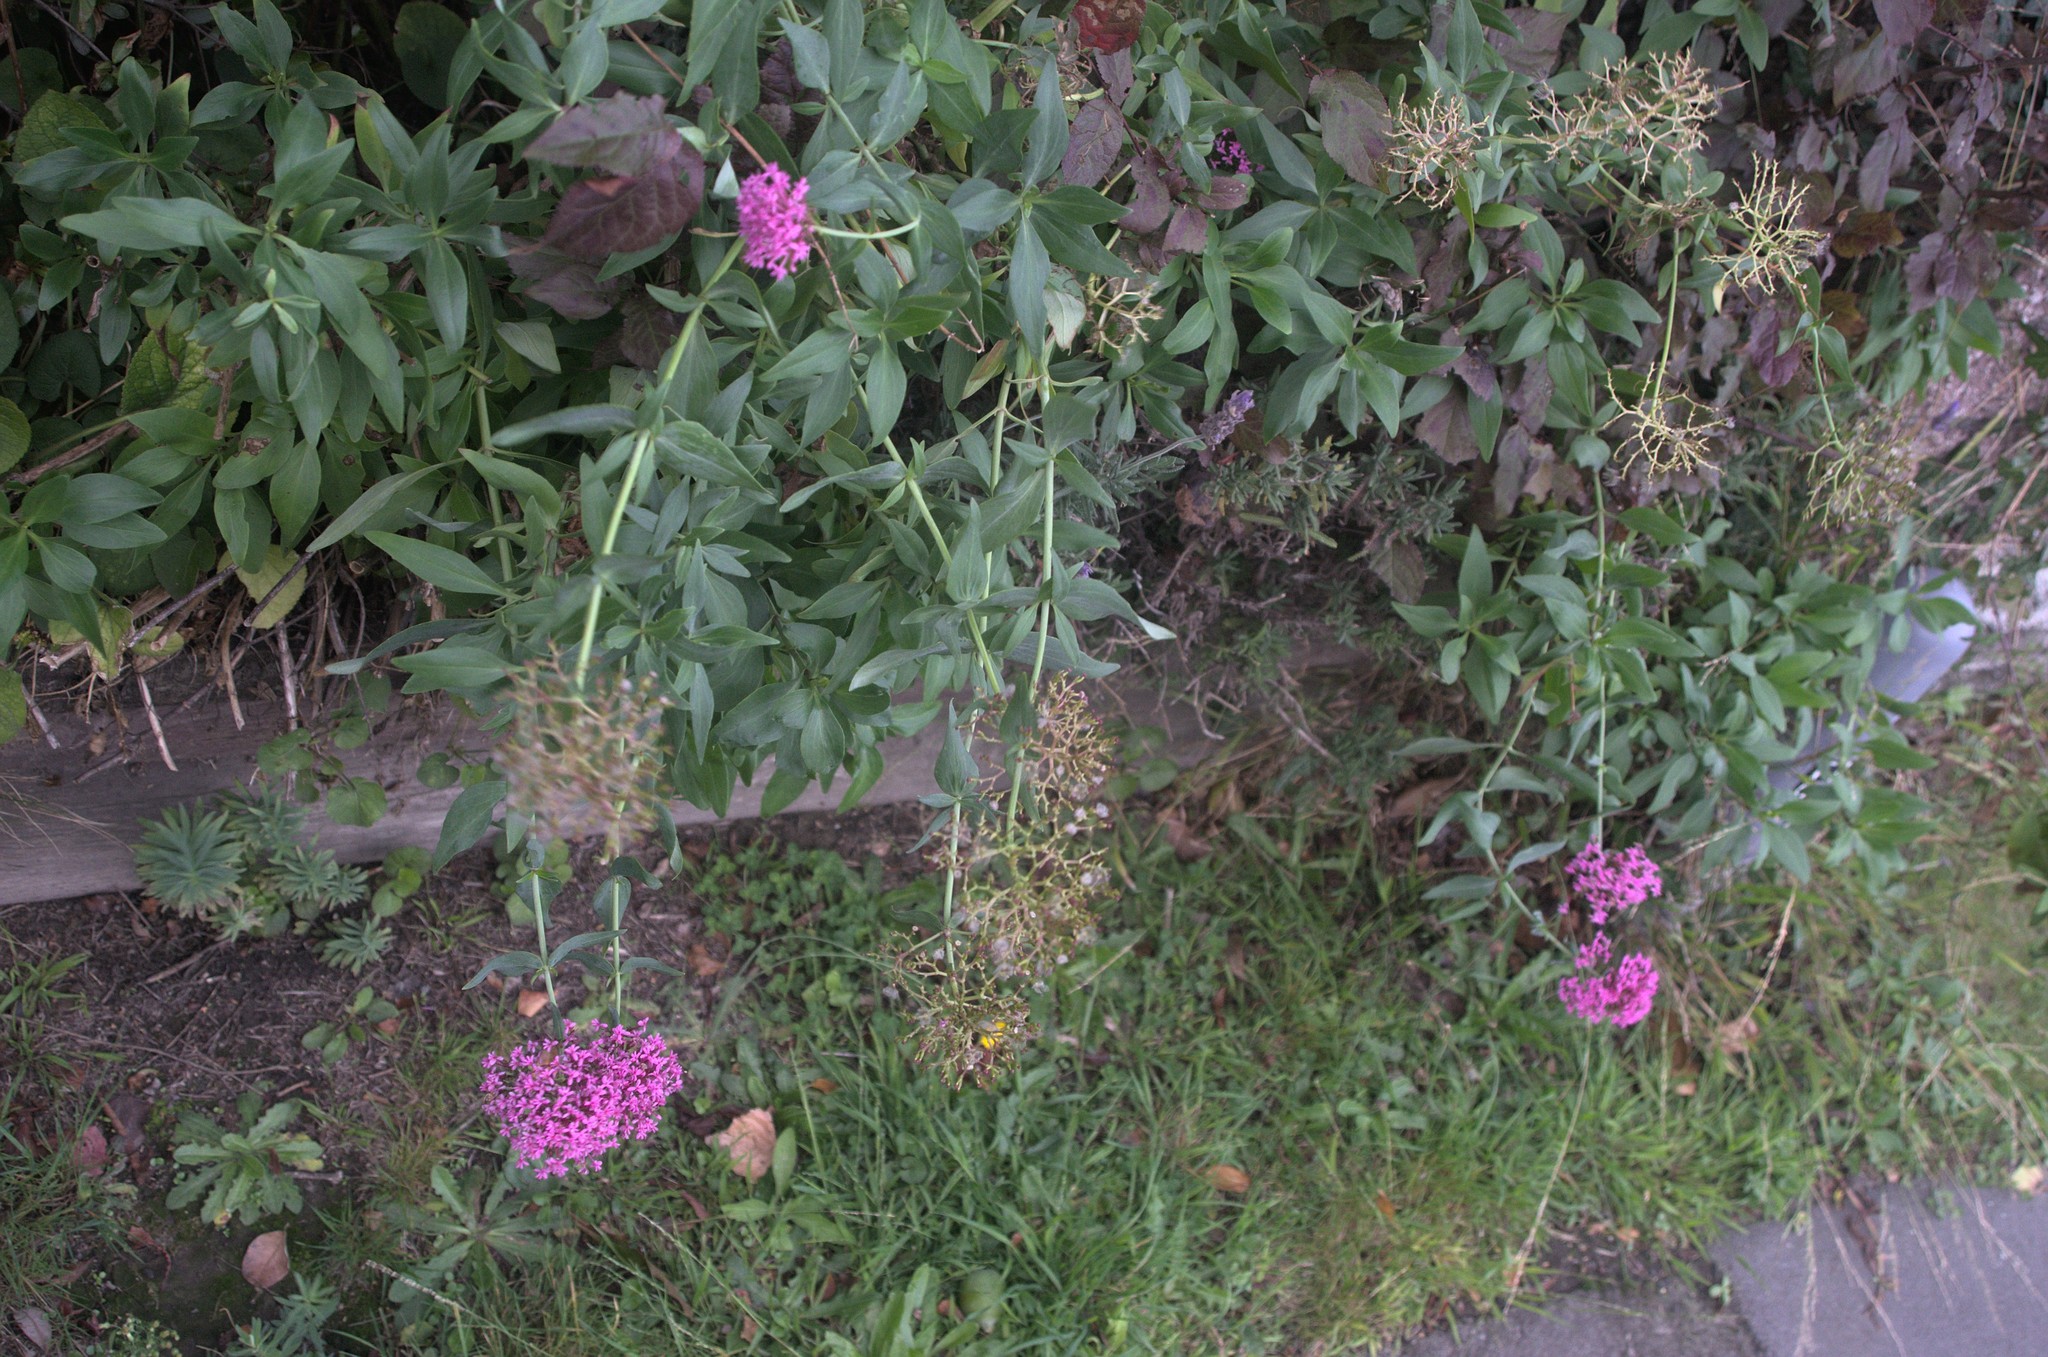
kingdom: Plantae
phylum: Tracheophyta
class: Magnoliopsida
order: Dipsacales
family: Caprifoliaceae
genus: Centranthus
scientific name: Centranthus ruber
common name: Red valerian
